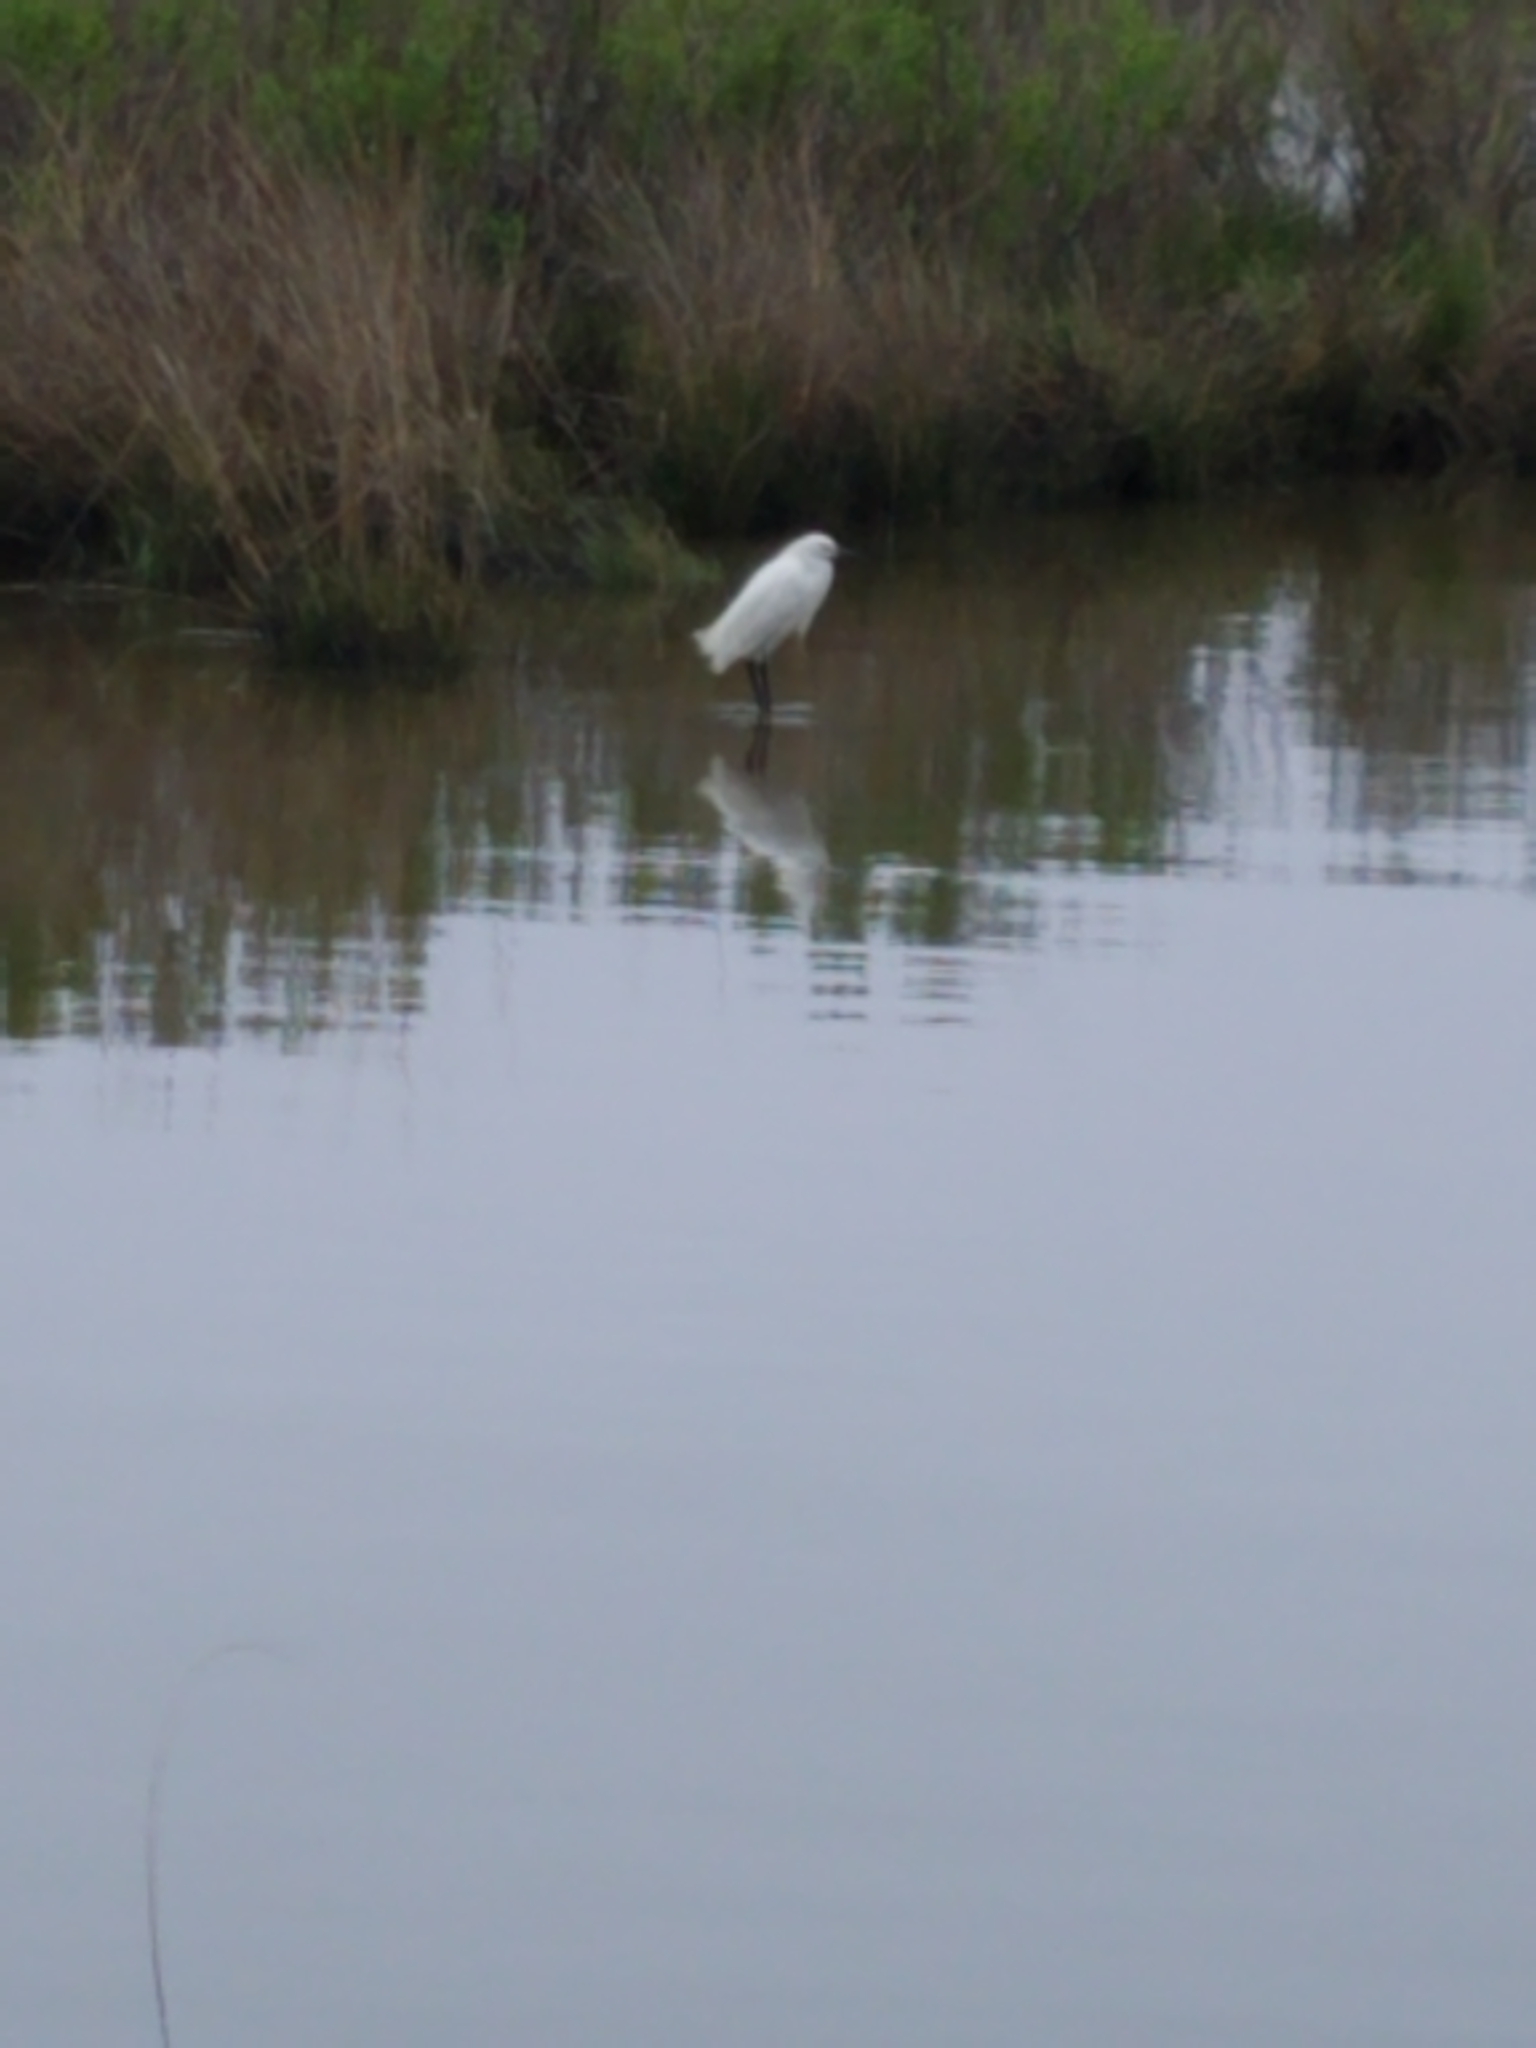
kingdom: Animalia
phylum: Chordata
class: Aves
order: Pelecaniformes
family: Ardeidae
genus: Egretta
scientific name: Egretta thula
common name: Snowy egret
